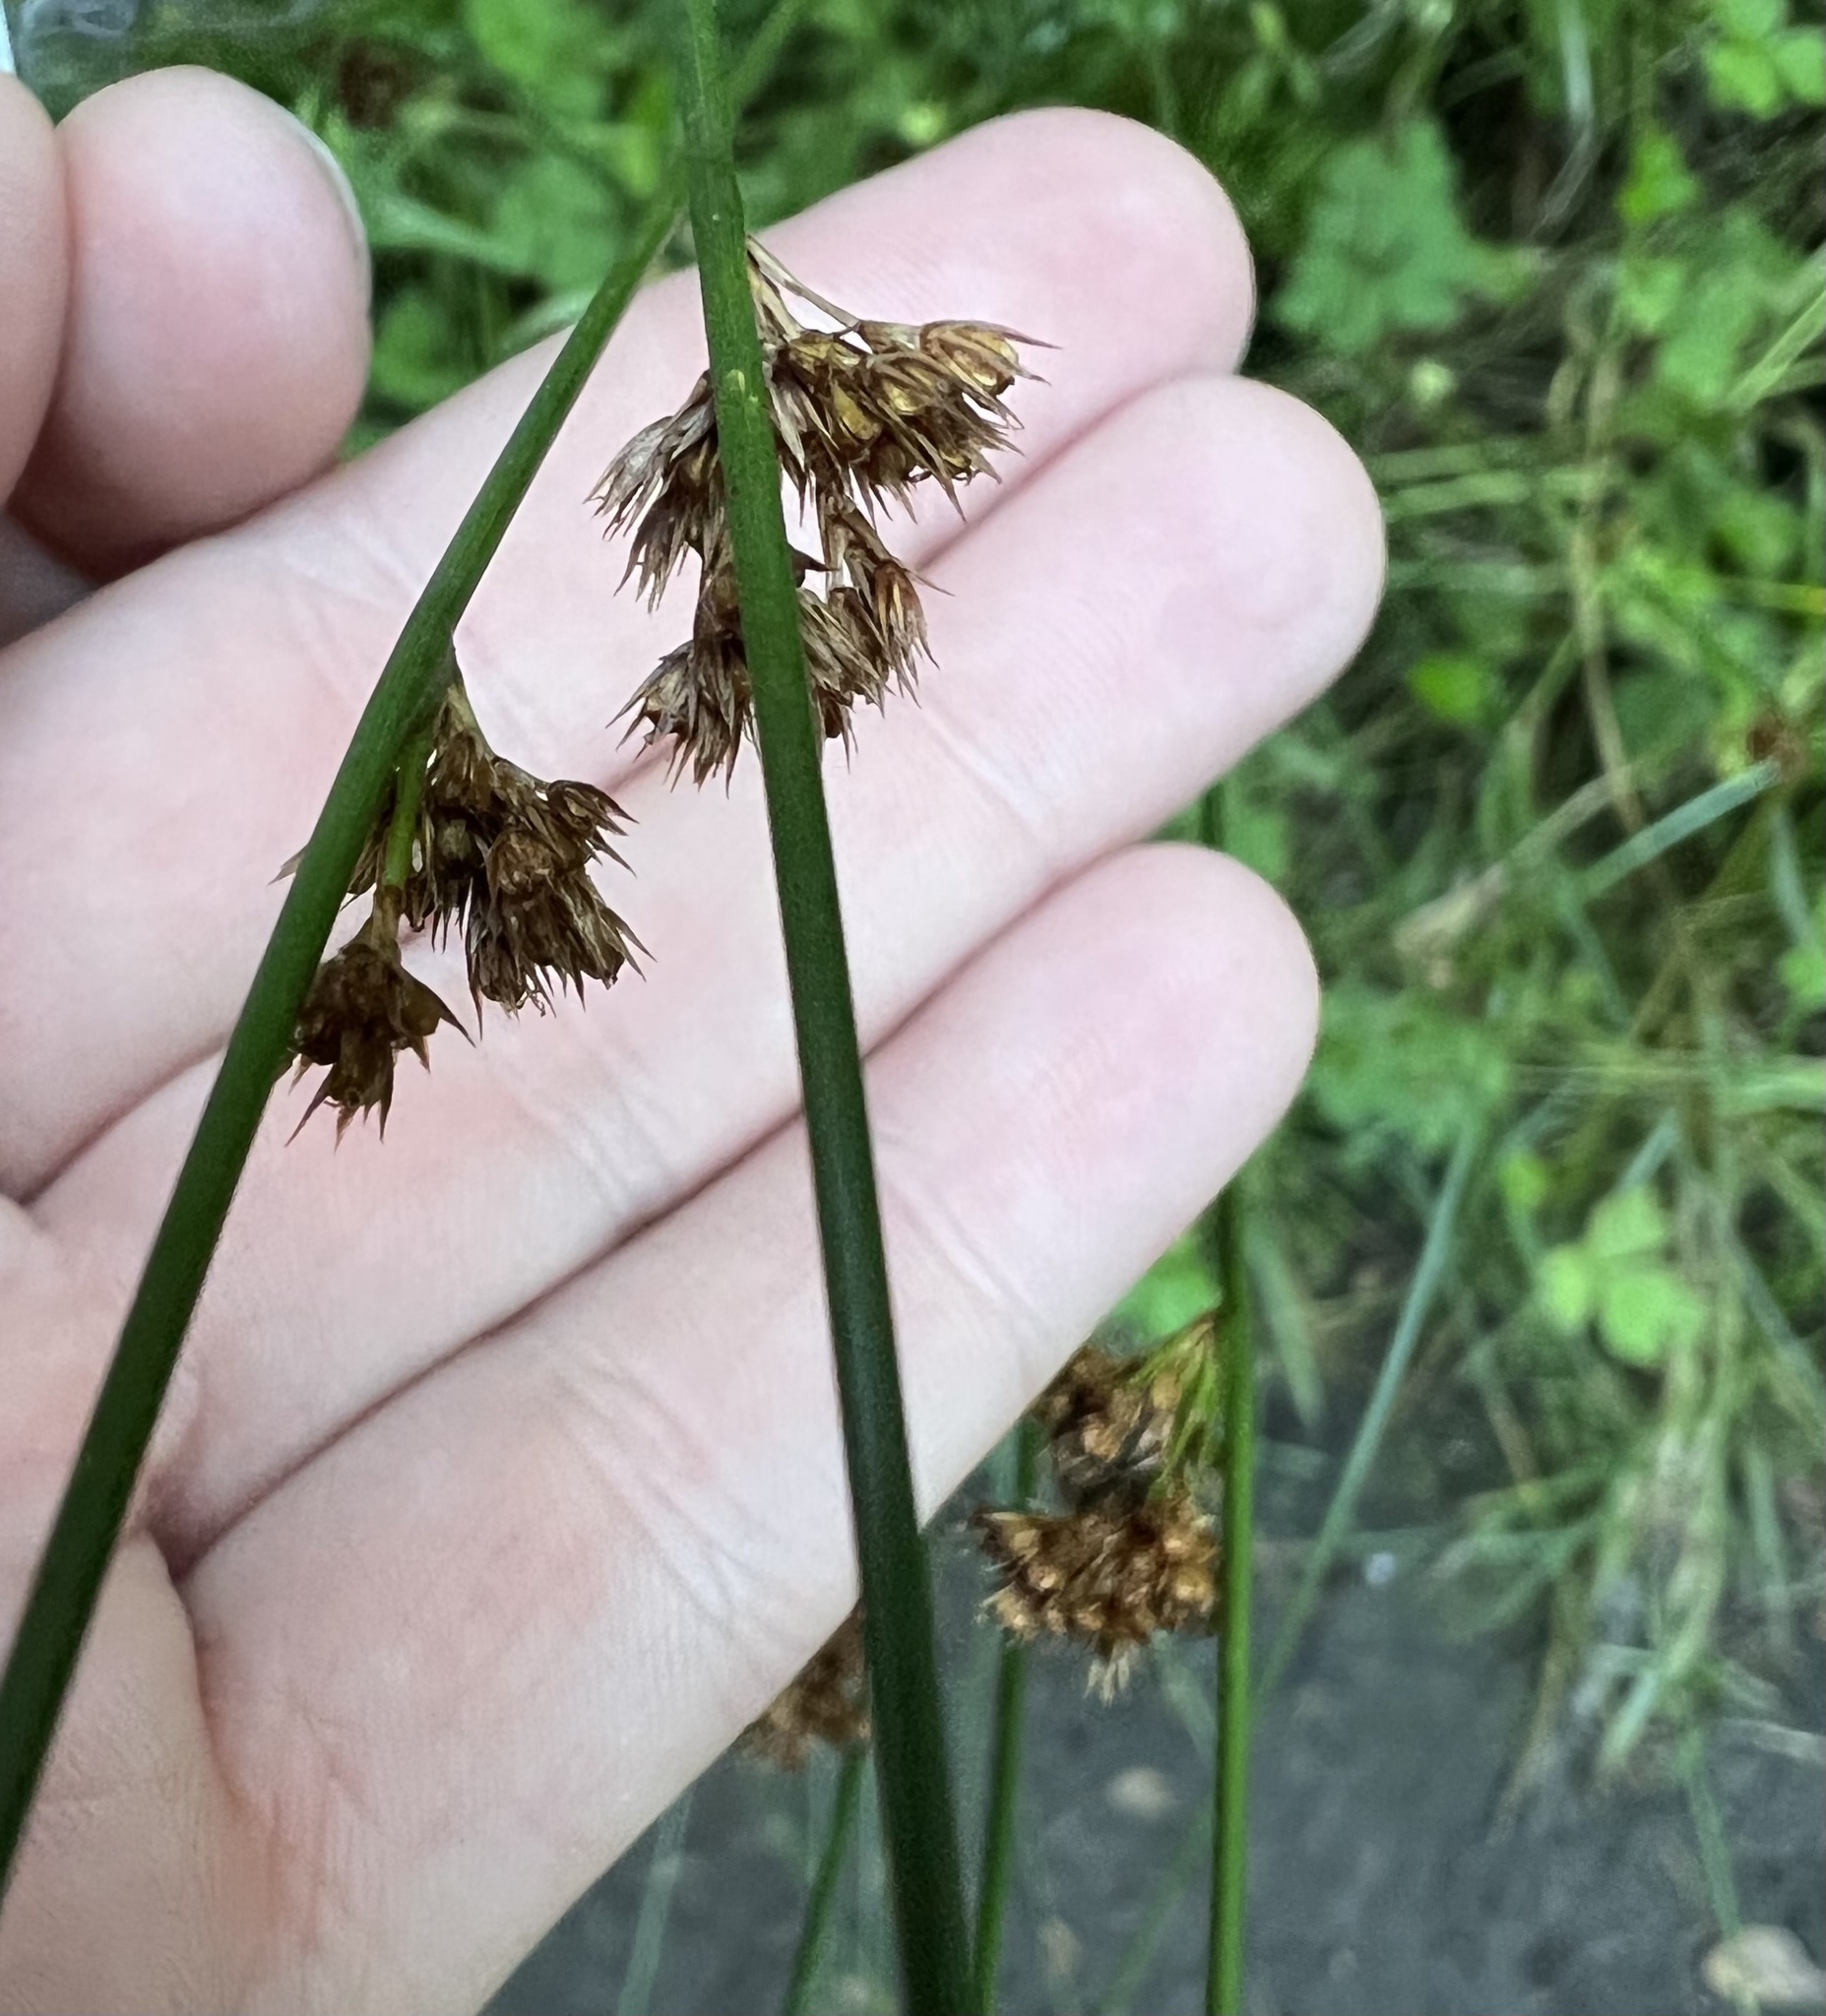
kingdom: Plantae
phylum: Tracheophyta
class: Liliopsida
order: Poales
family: Juncaceae
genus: Juncus
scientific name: Juncus effusus
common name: Soft rush
